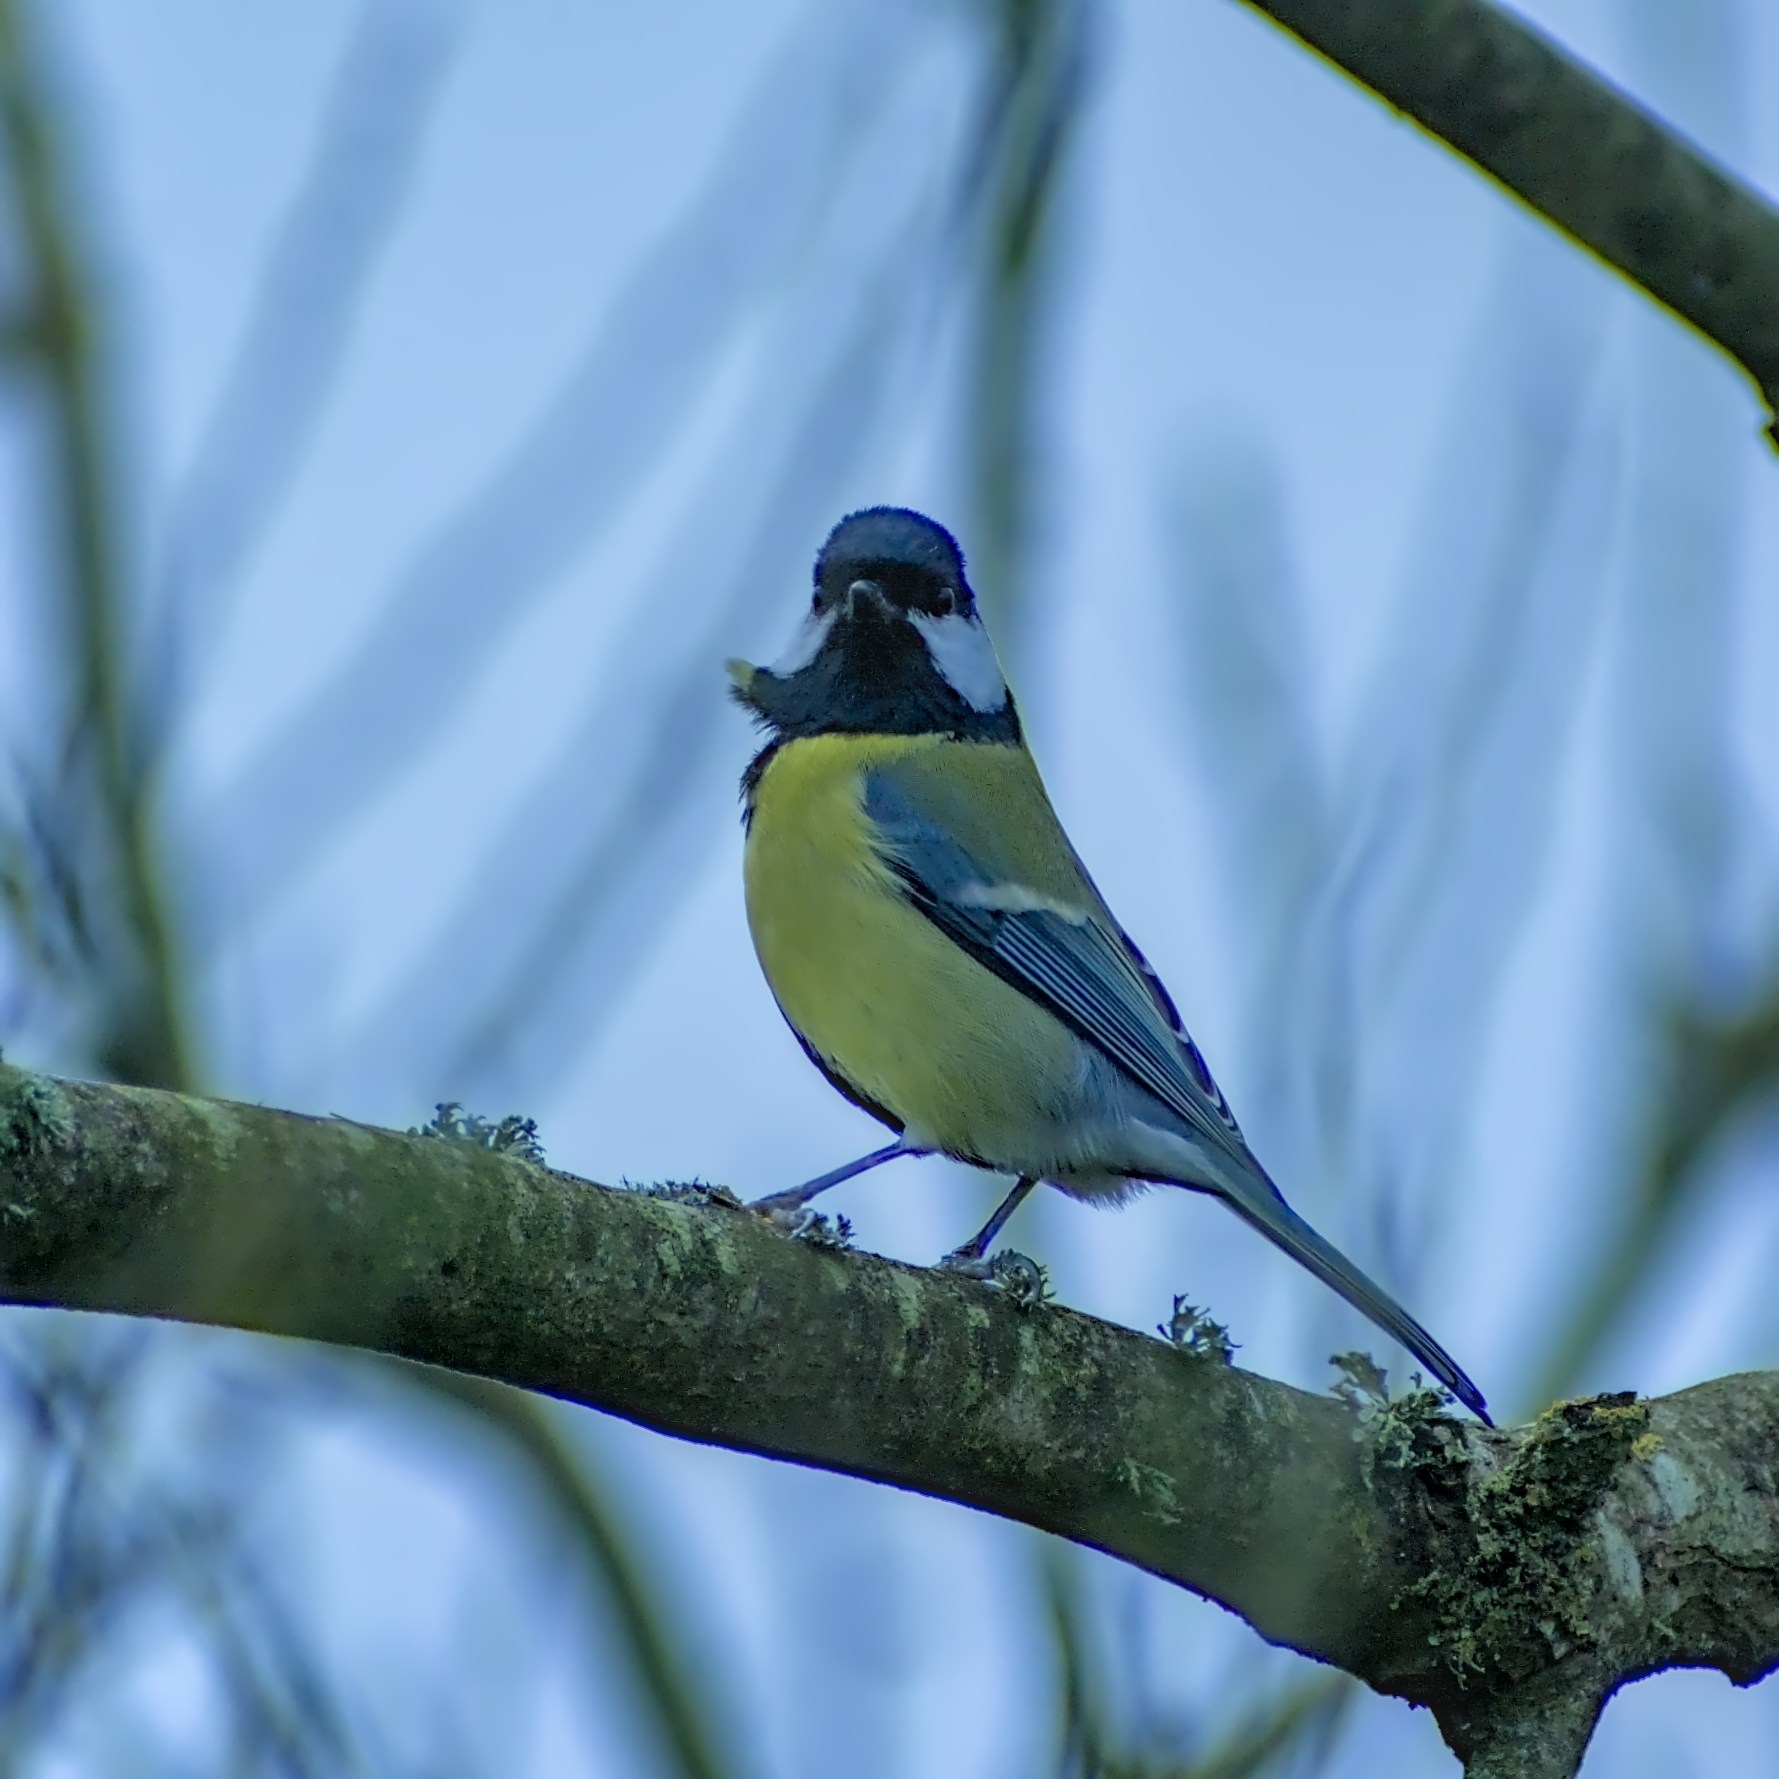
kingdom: Animalia
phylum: Chordata
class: Aves
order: Passeriformes
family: Paridae
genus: Parus
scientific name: Parus major
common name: Great tit
